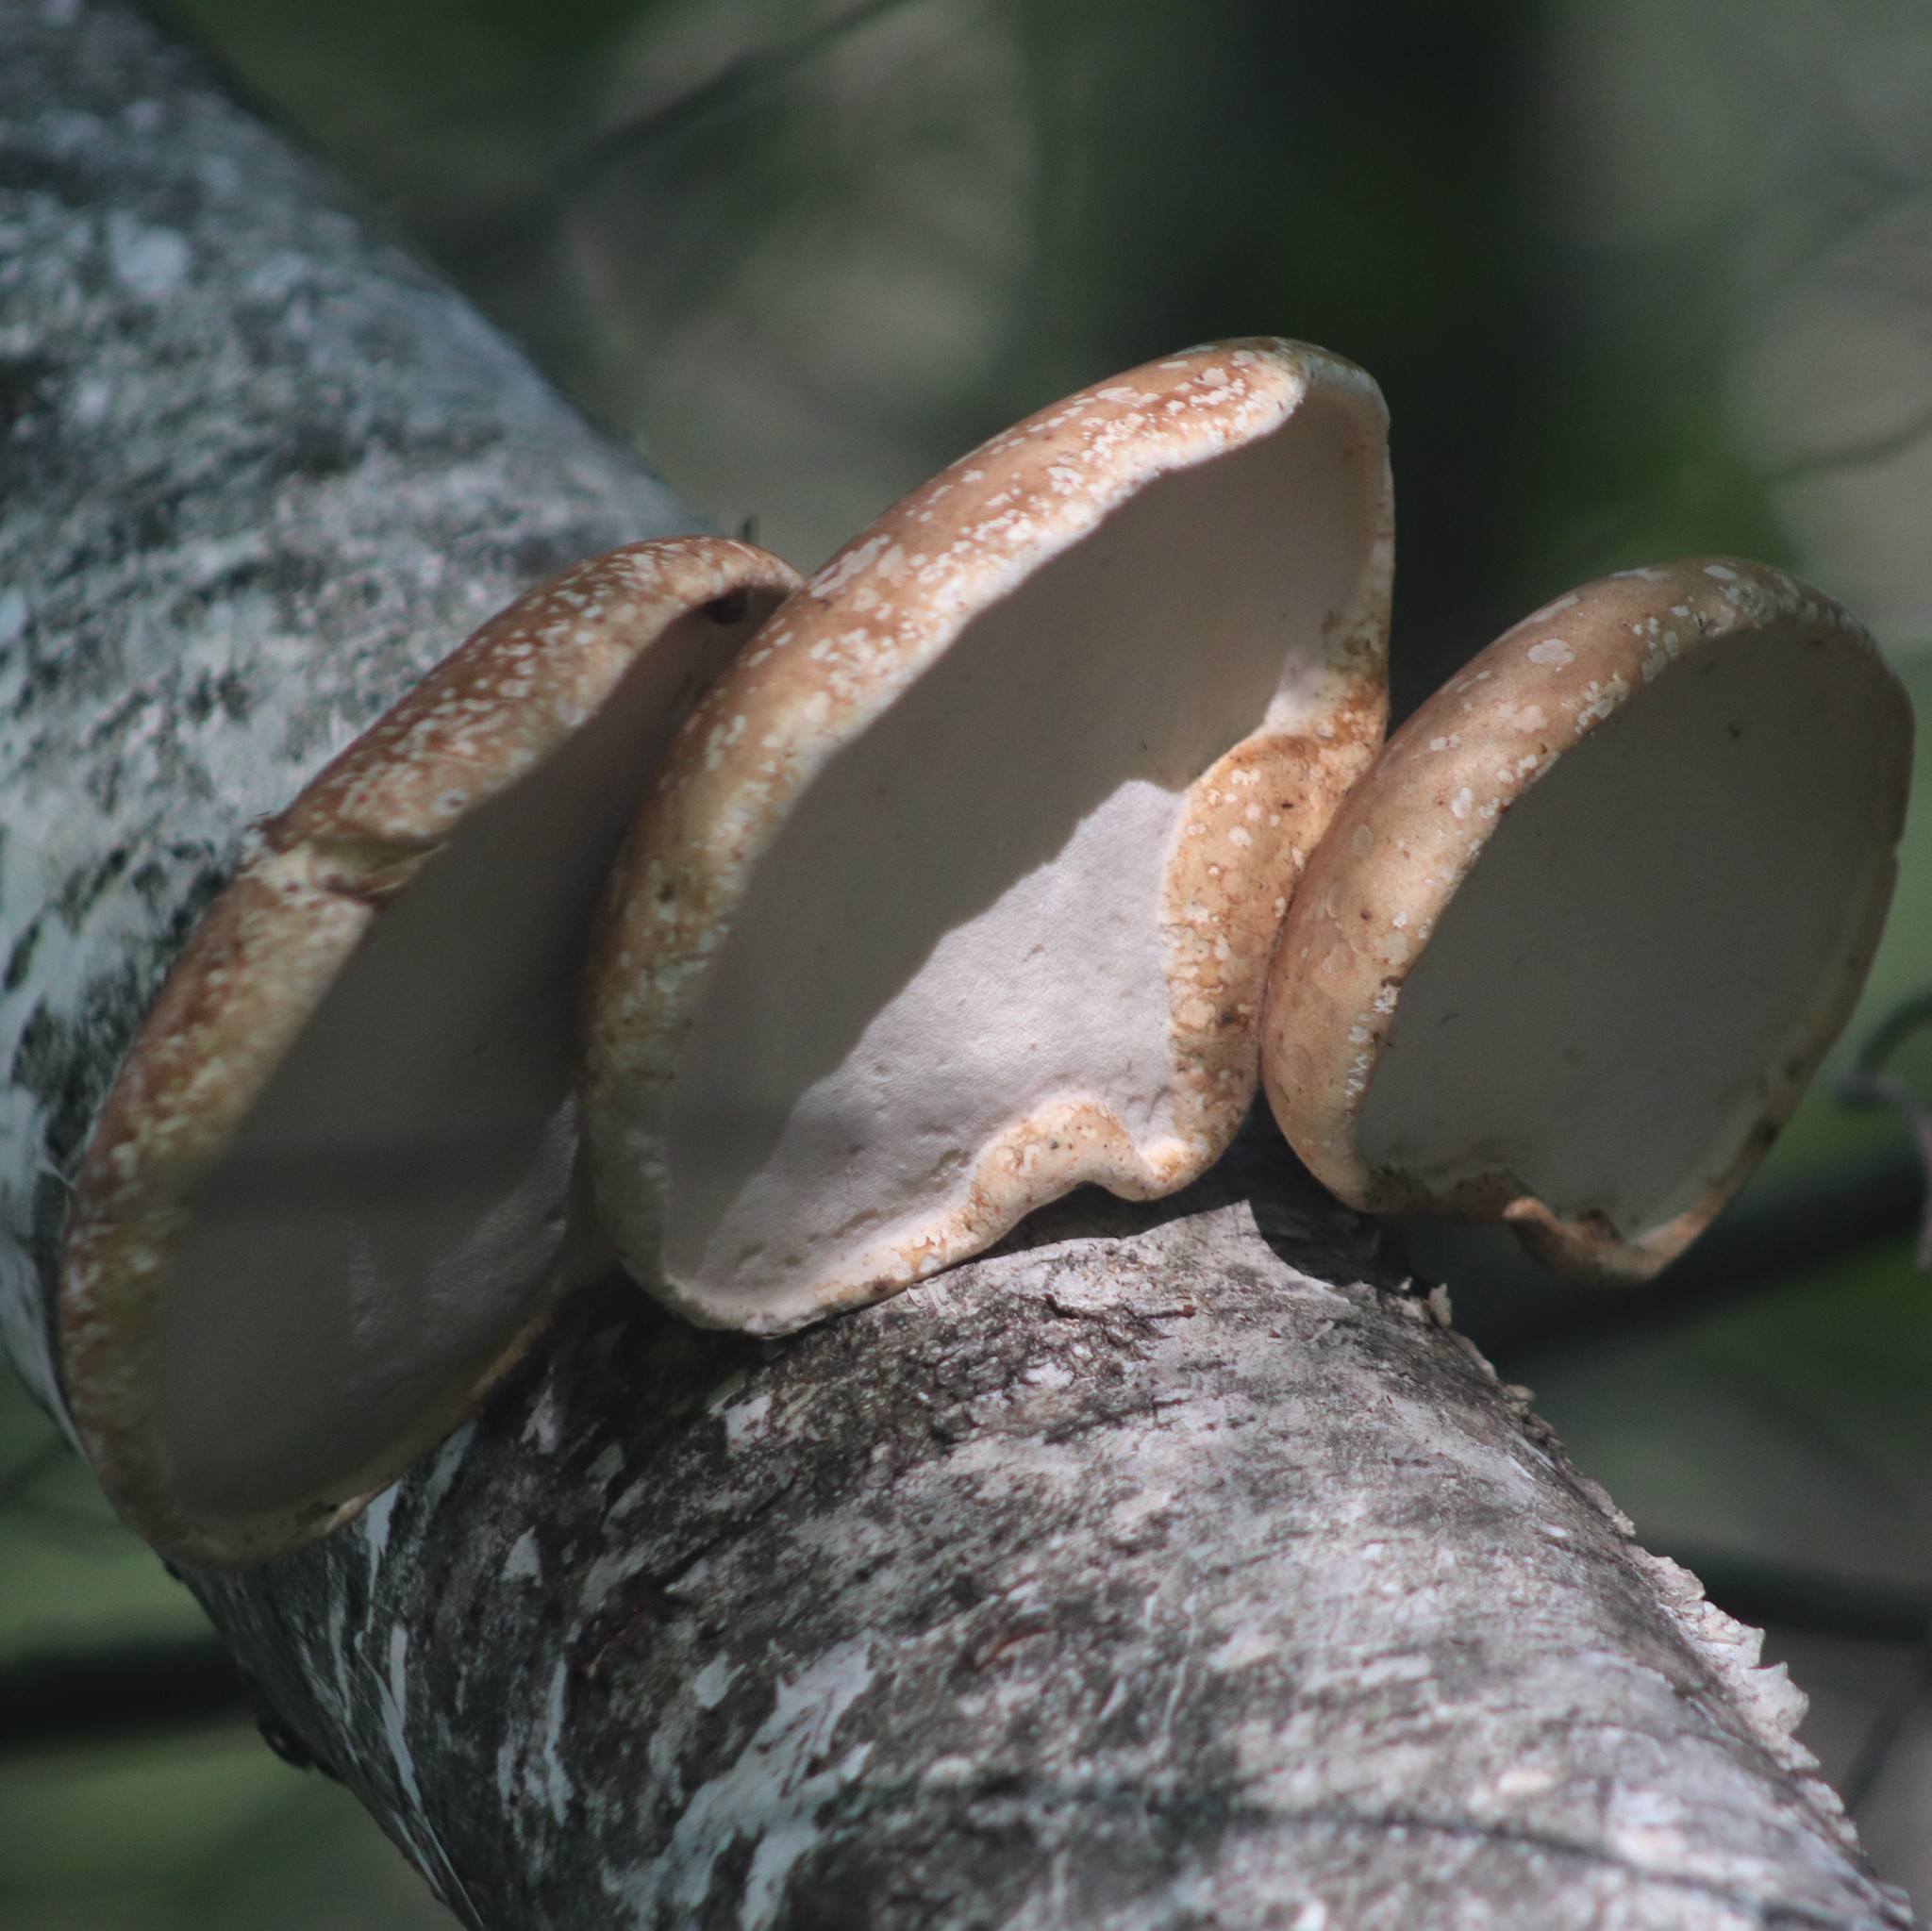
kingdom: Fungi
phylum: Basidiomycota
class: Agaricomycetes
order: Polyporales
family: Fomitopsidaceae
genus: Fomitopsis
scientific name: Fomitopsis betulina
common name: Birch polypore
